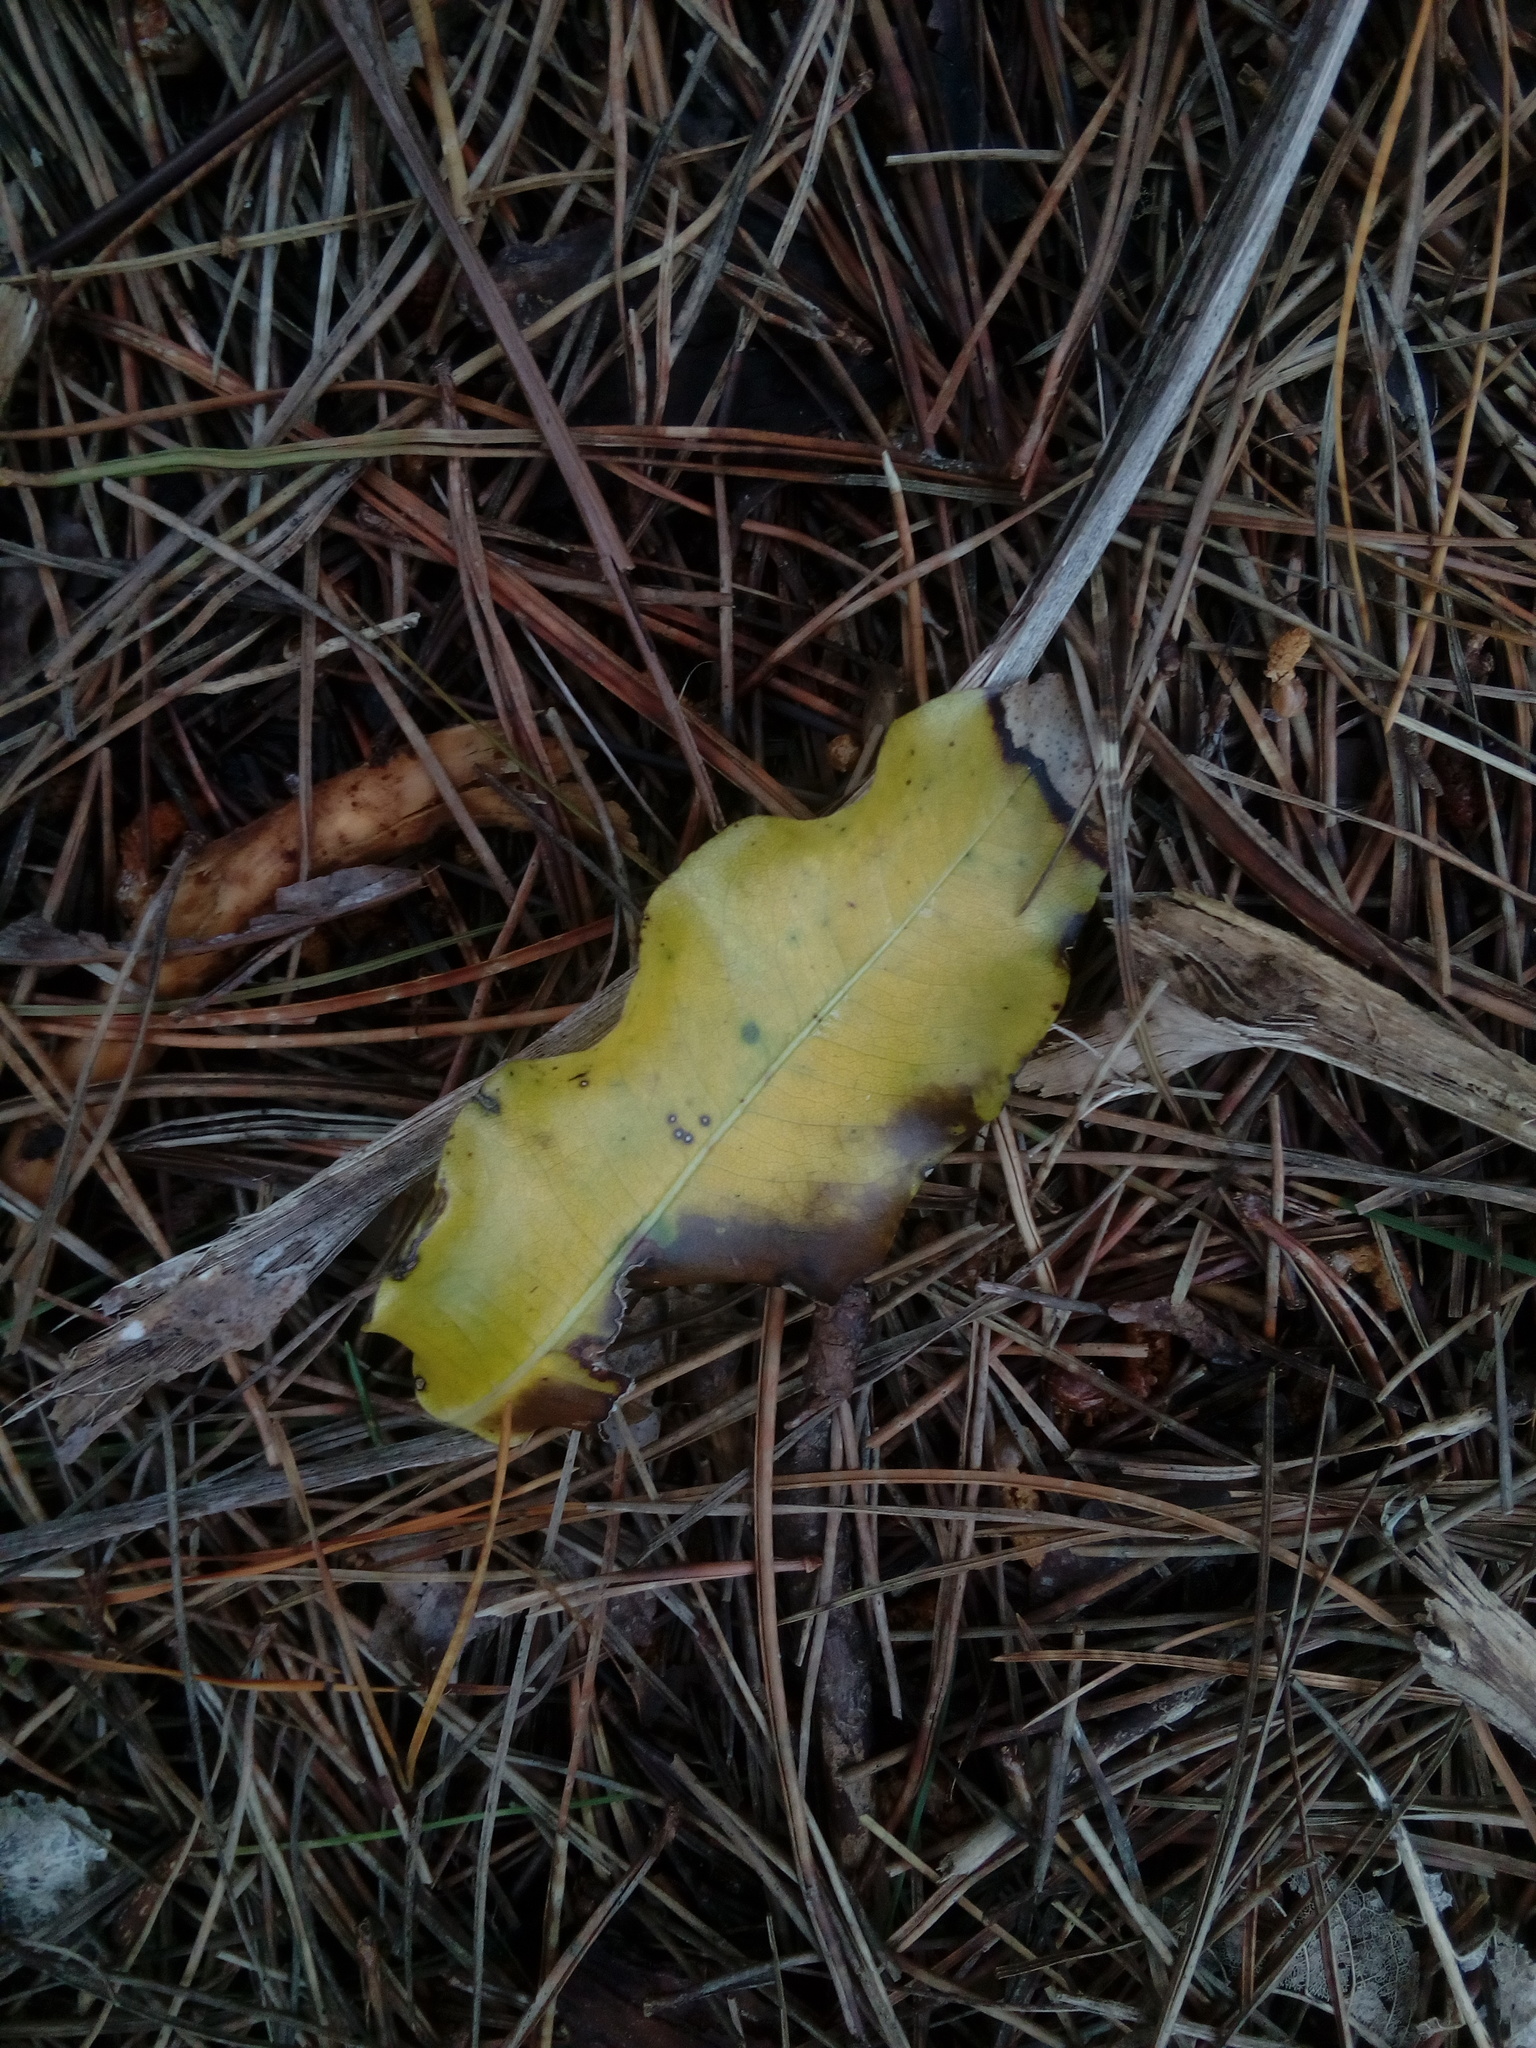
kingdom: Plantae
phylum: Tracheophyta
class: Magnoliopsida
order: Apiales
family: Pittosporaceae
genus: Pittosporum
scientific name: Pittosporum eugenioides
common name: Lemonwood
